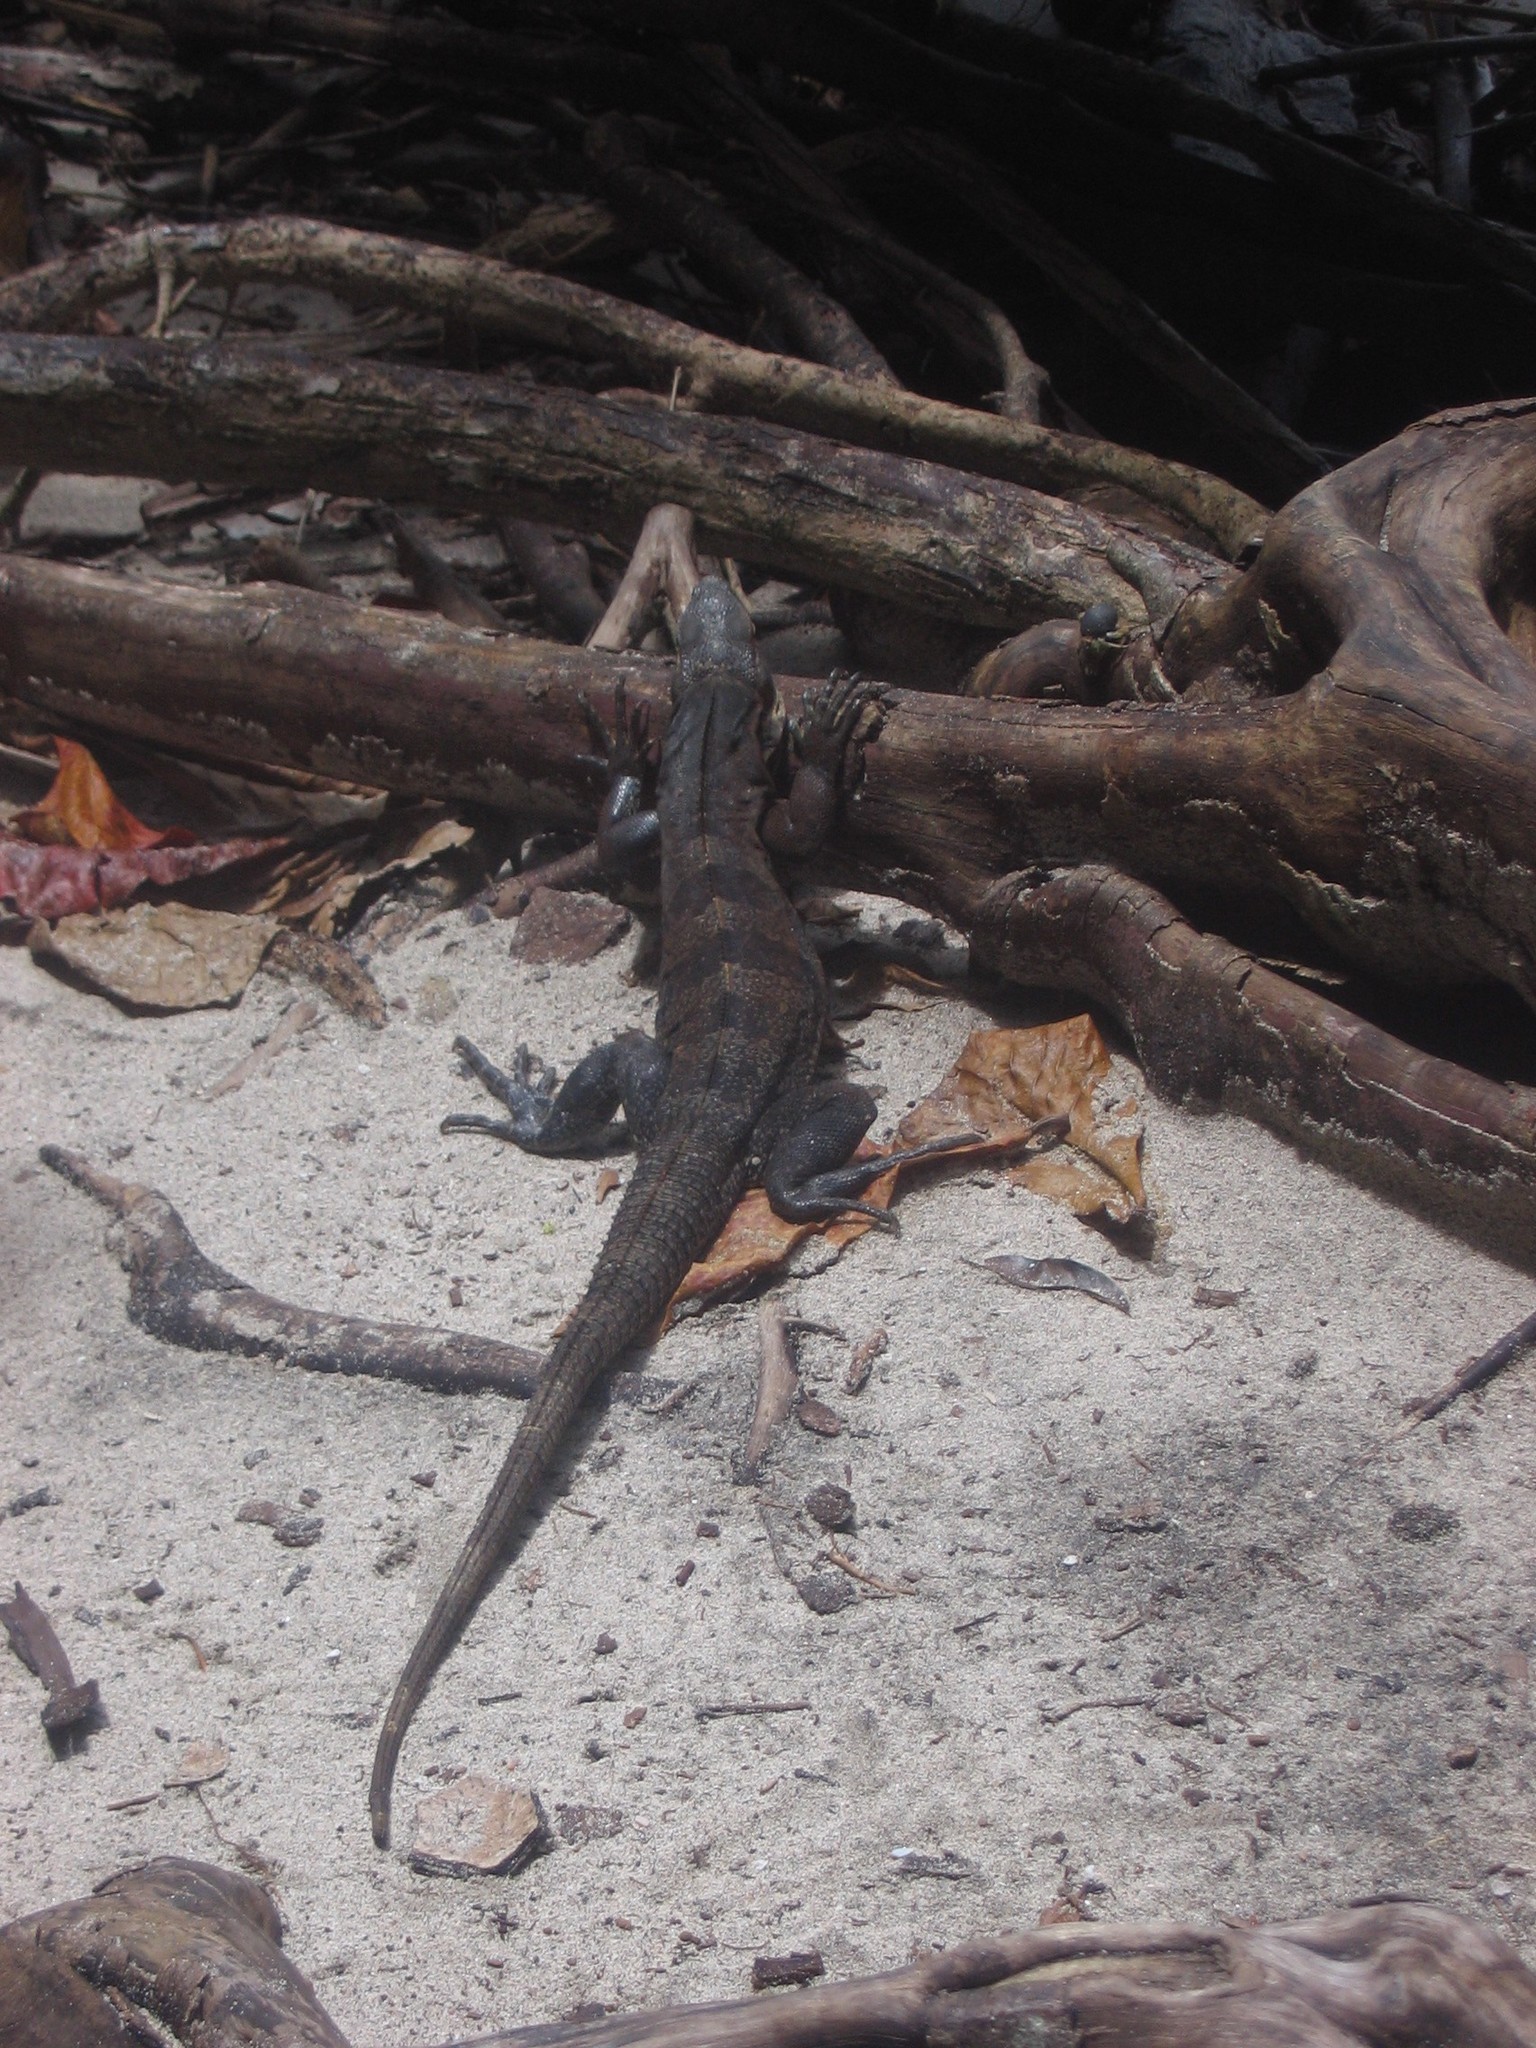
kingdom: Animalia
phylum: Chordata
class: Squamata
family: Iguanidae
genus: Ctenosaura
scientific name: Ctenosaura similis
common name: Black spiny-tailed iguana
